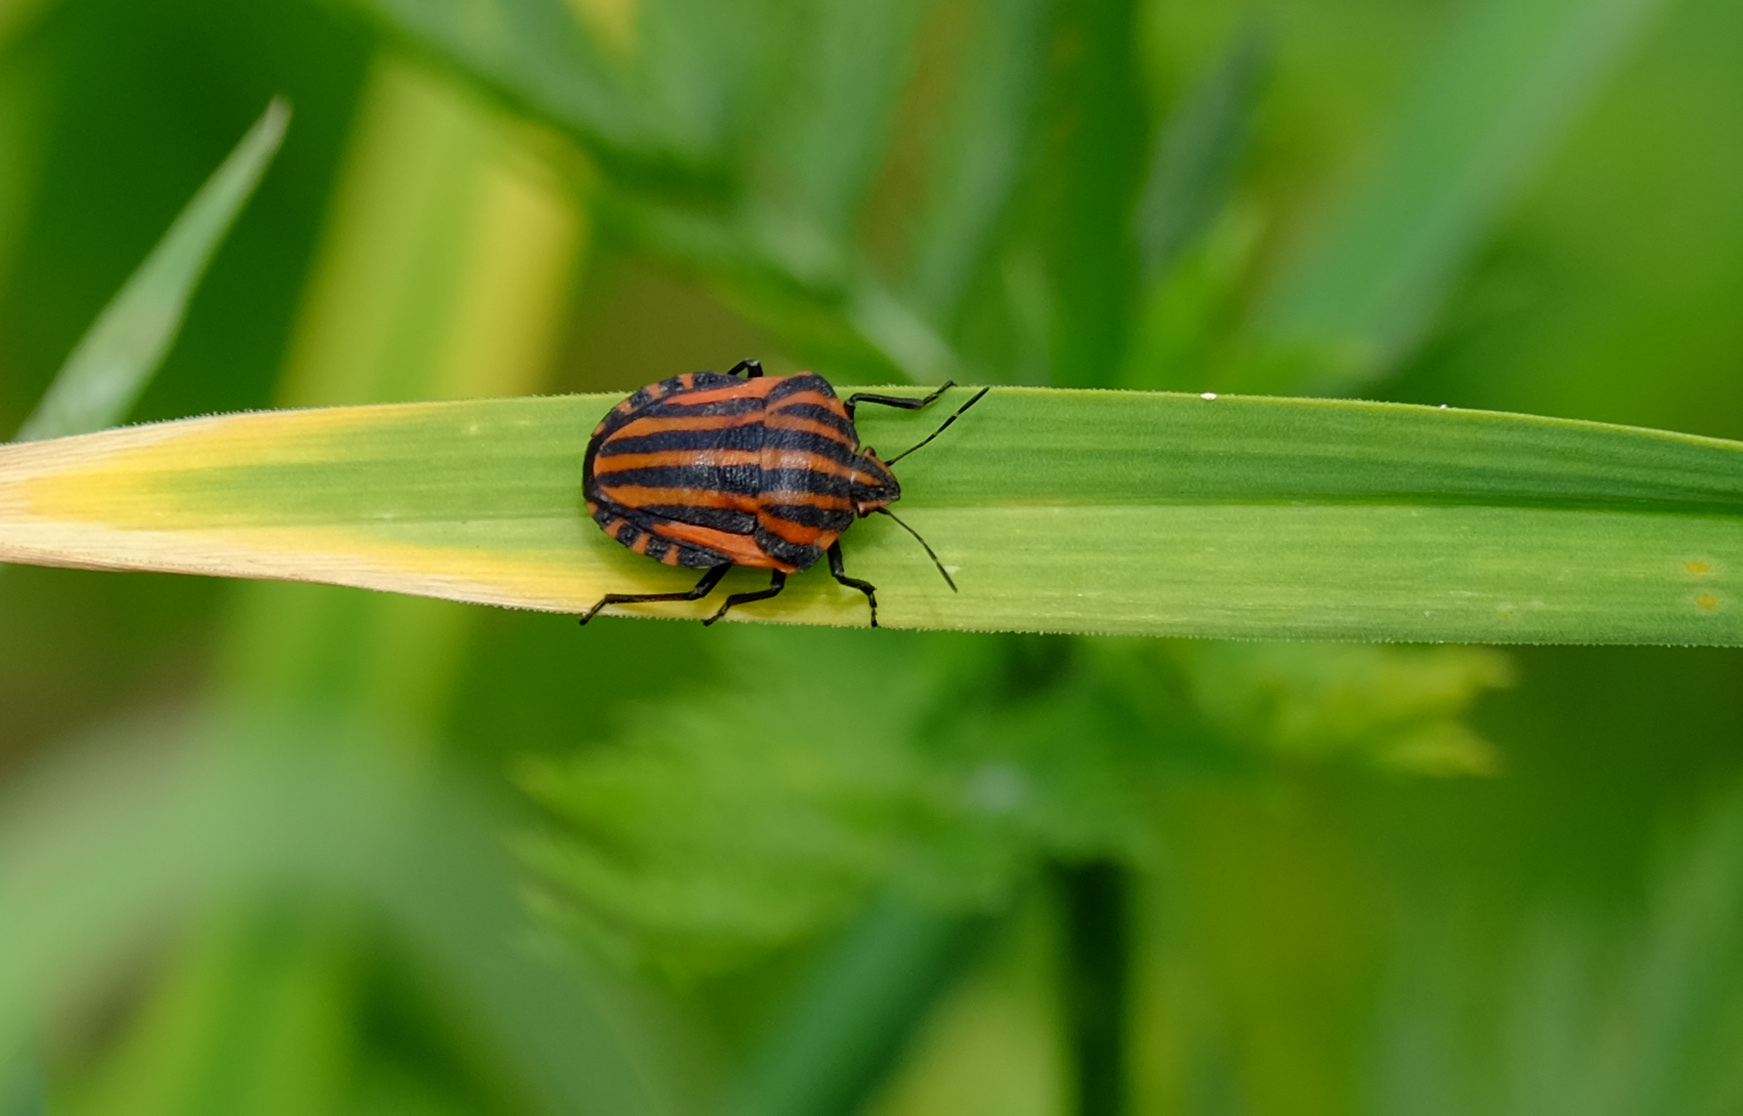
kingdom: Animalia
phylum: Arthropoda
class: Insecta
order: Hemiptera
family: Pentatomidae
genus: Graphosoma
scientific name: Graphosoma italicum
